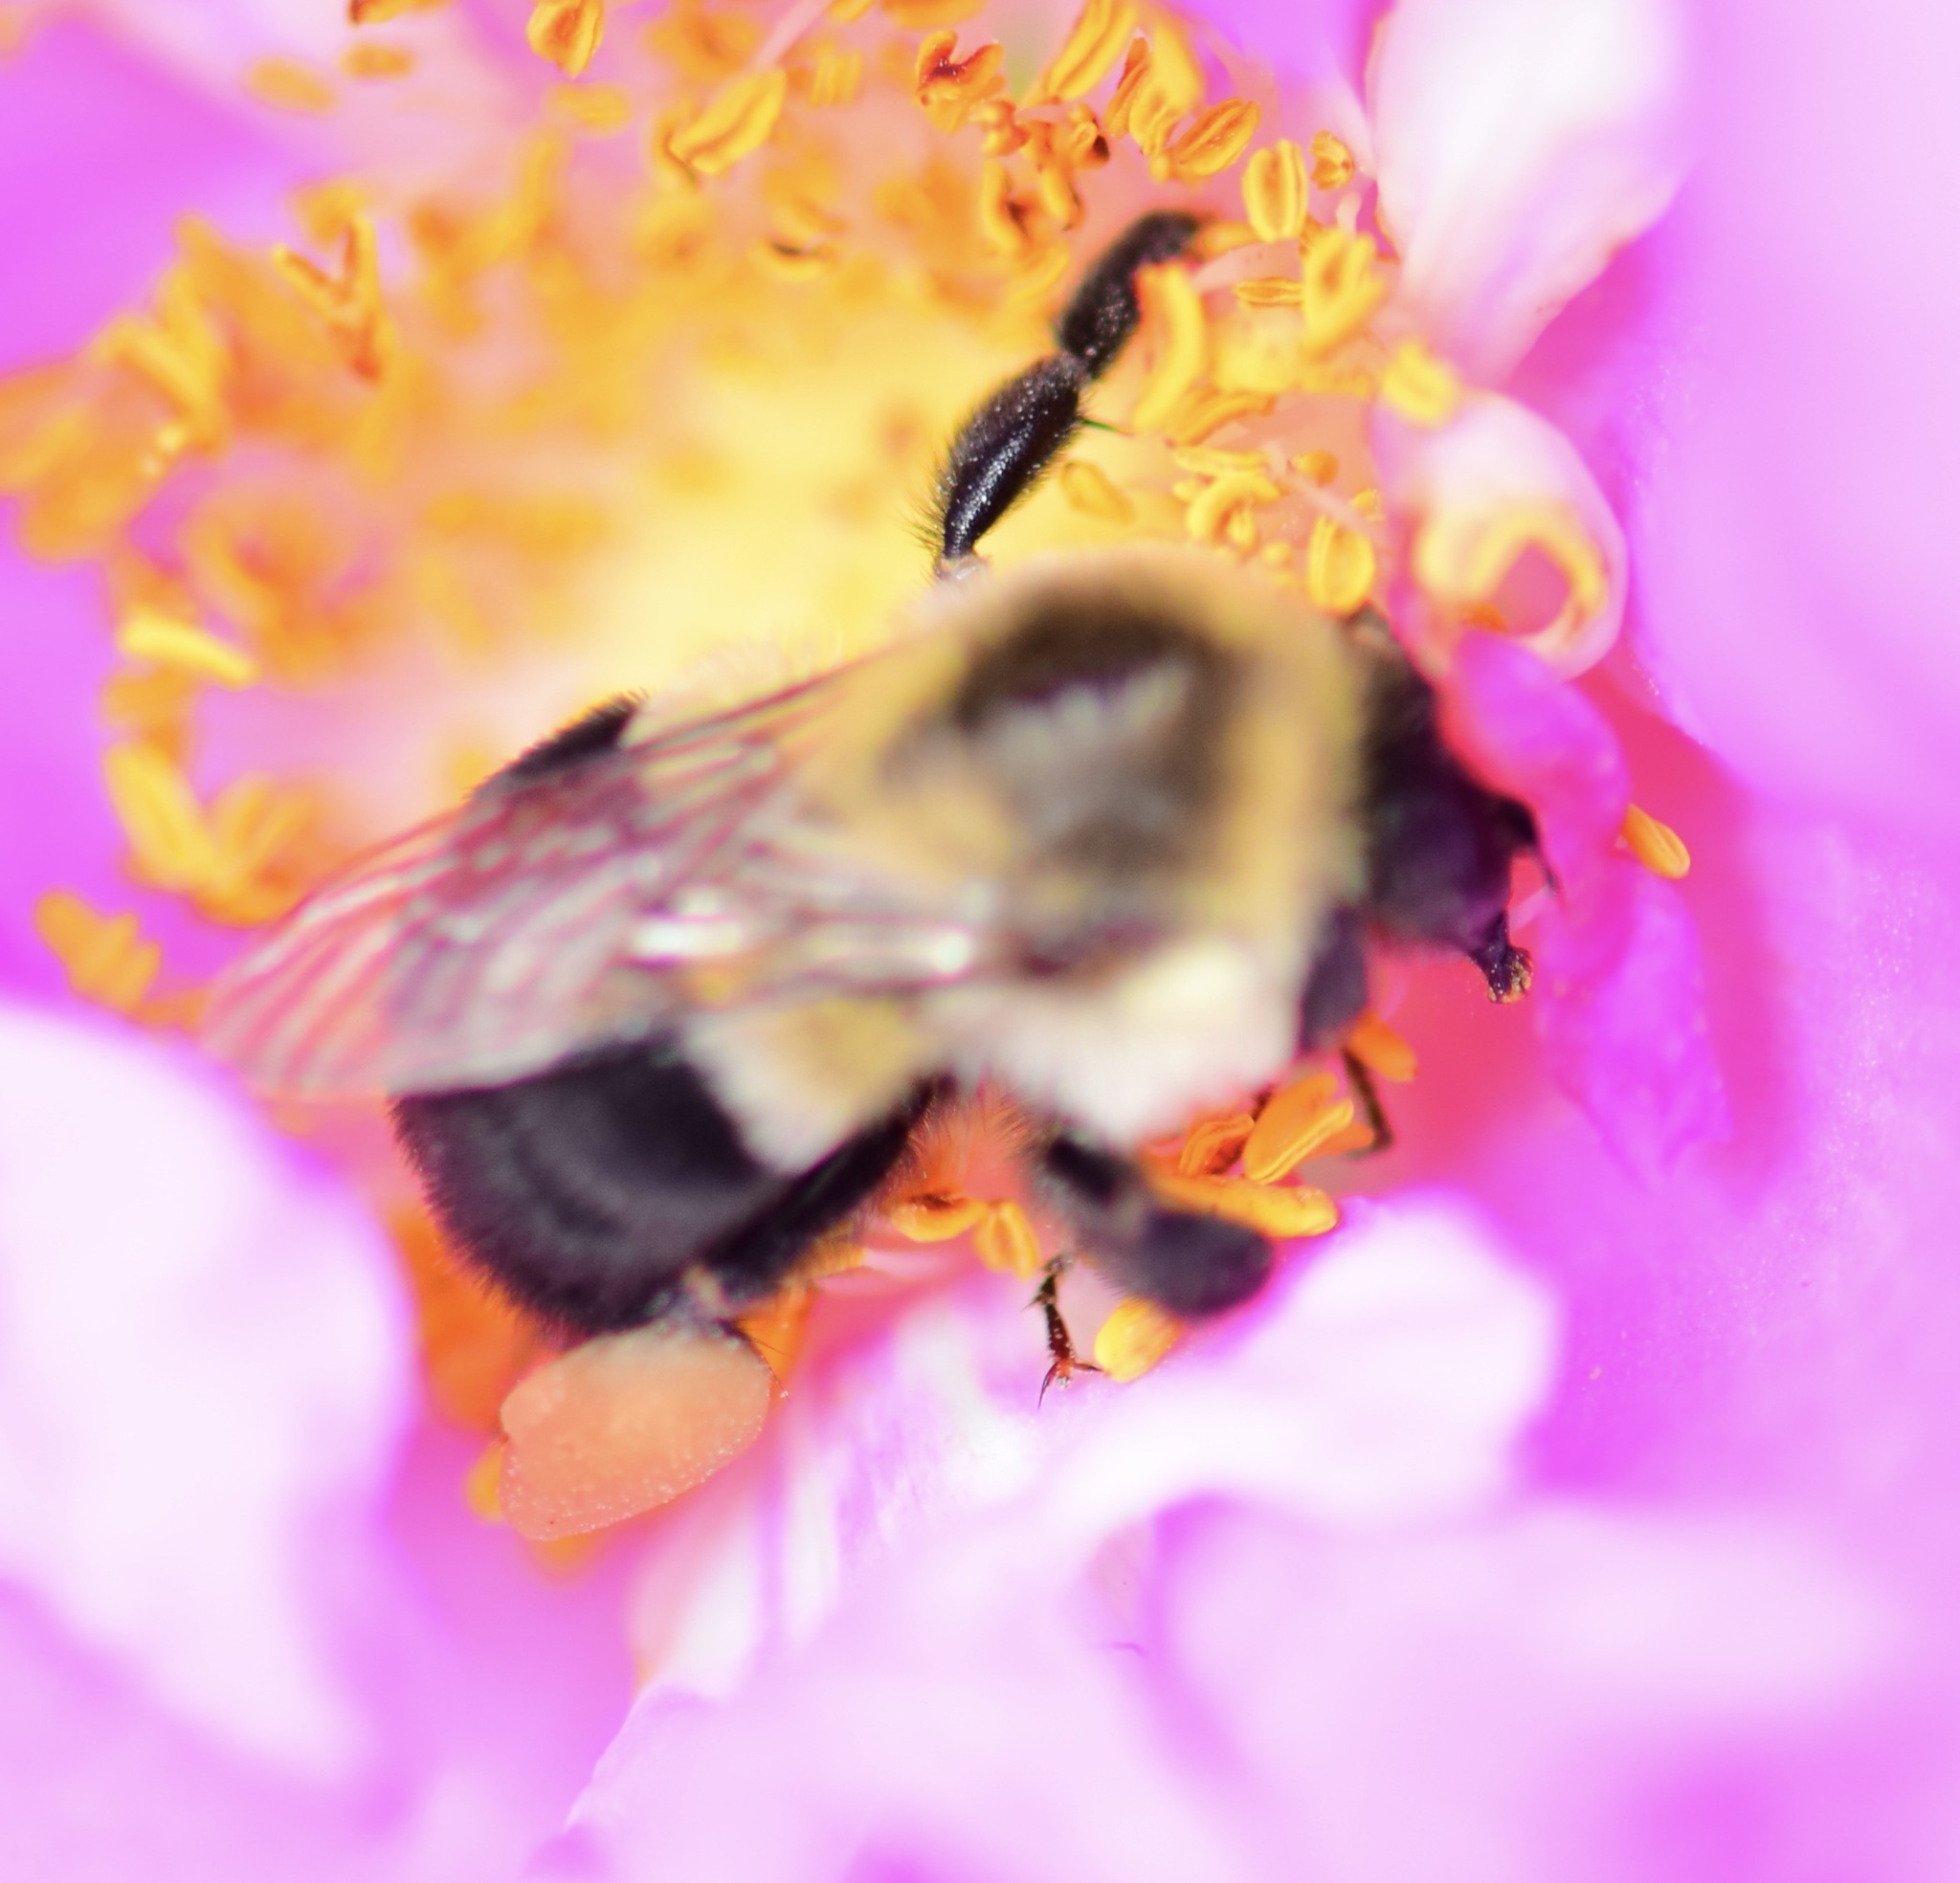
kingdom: Animalia
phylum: Arthropoda
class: Insecta
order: Hymenoptera
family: Apidae
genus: Bombus
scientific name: Bombus impatiens
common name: Common eastern bumble bee
